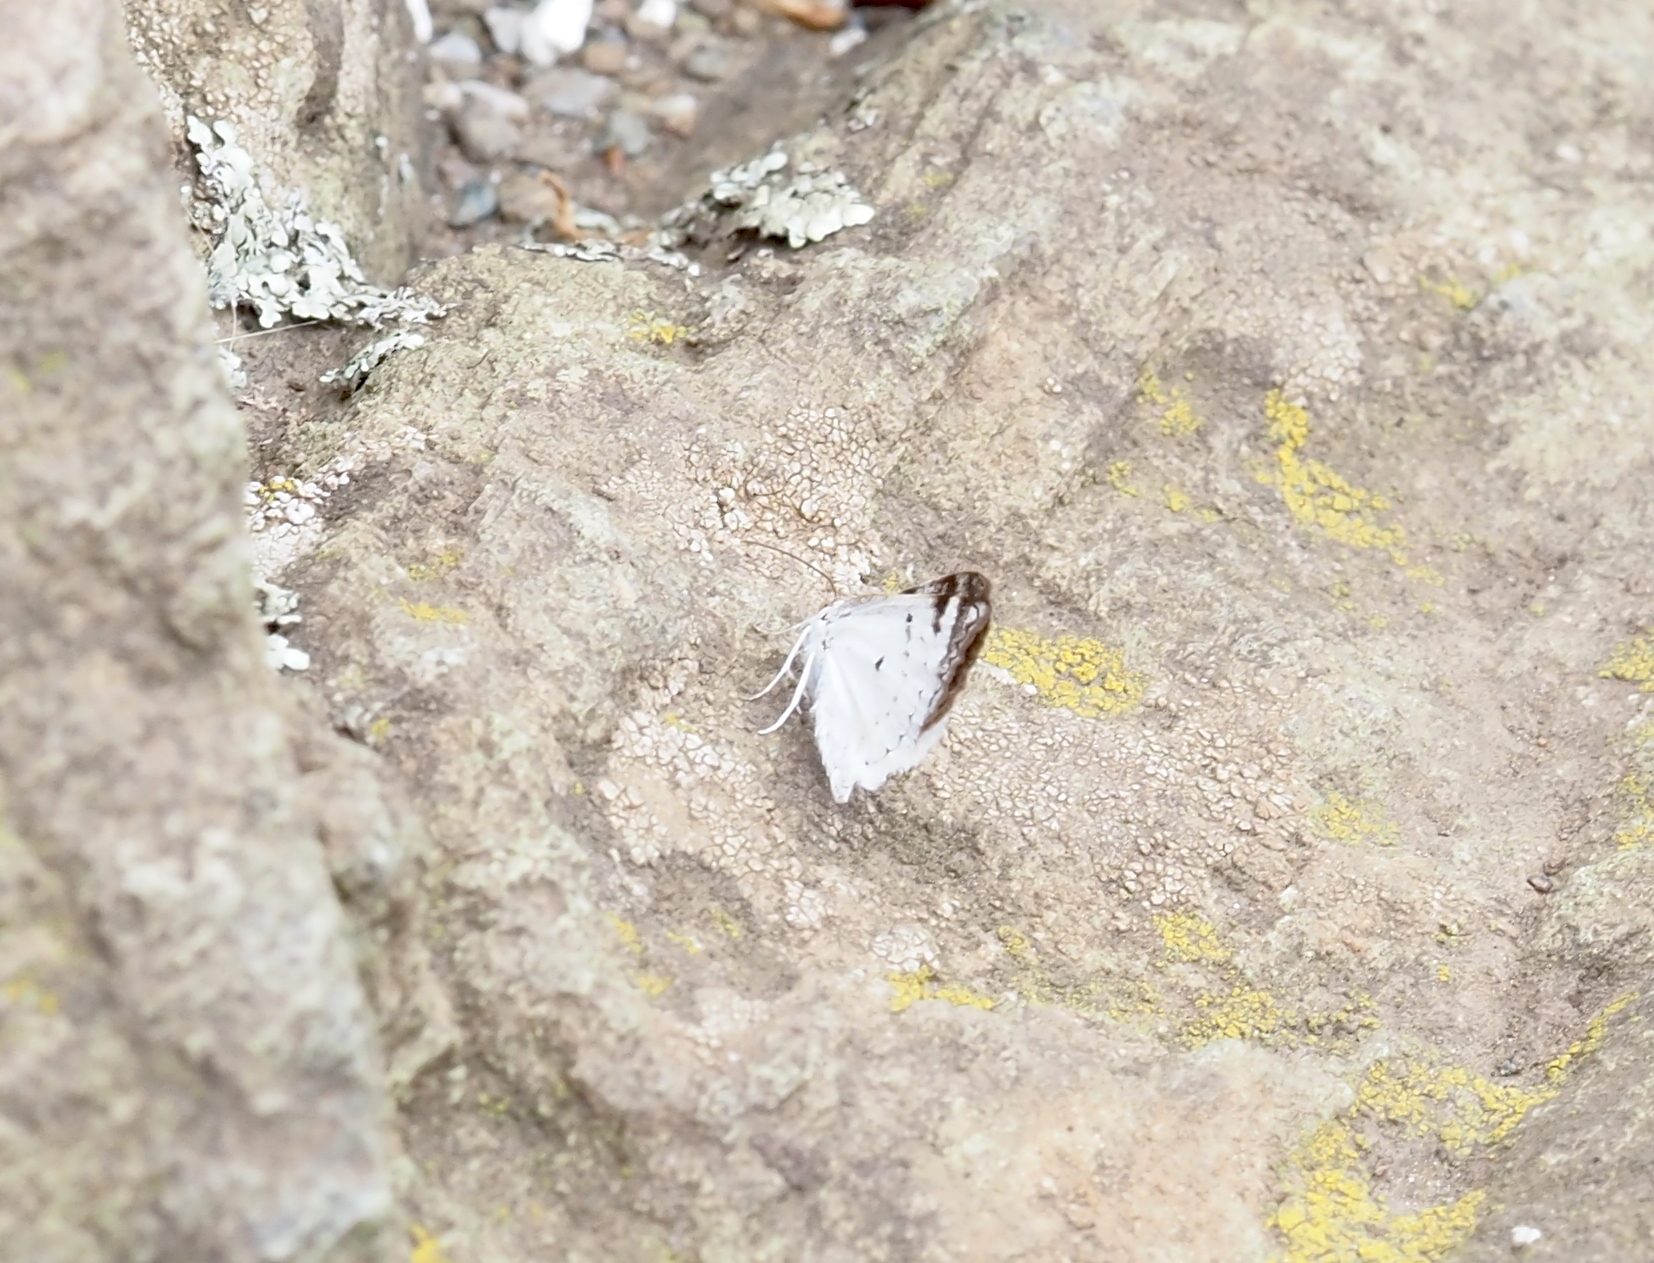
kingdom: Animalia
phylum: Arthropoda
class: Insecta
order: Lepidoptera
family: Geometridae
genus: Lomographa
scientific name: Lomographa semiclarata
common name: Bluish spring moth
